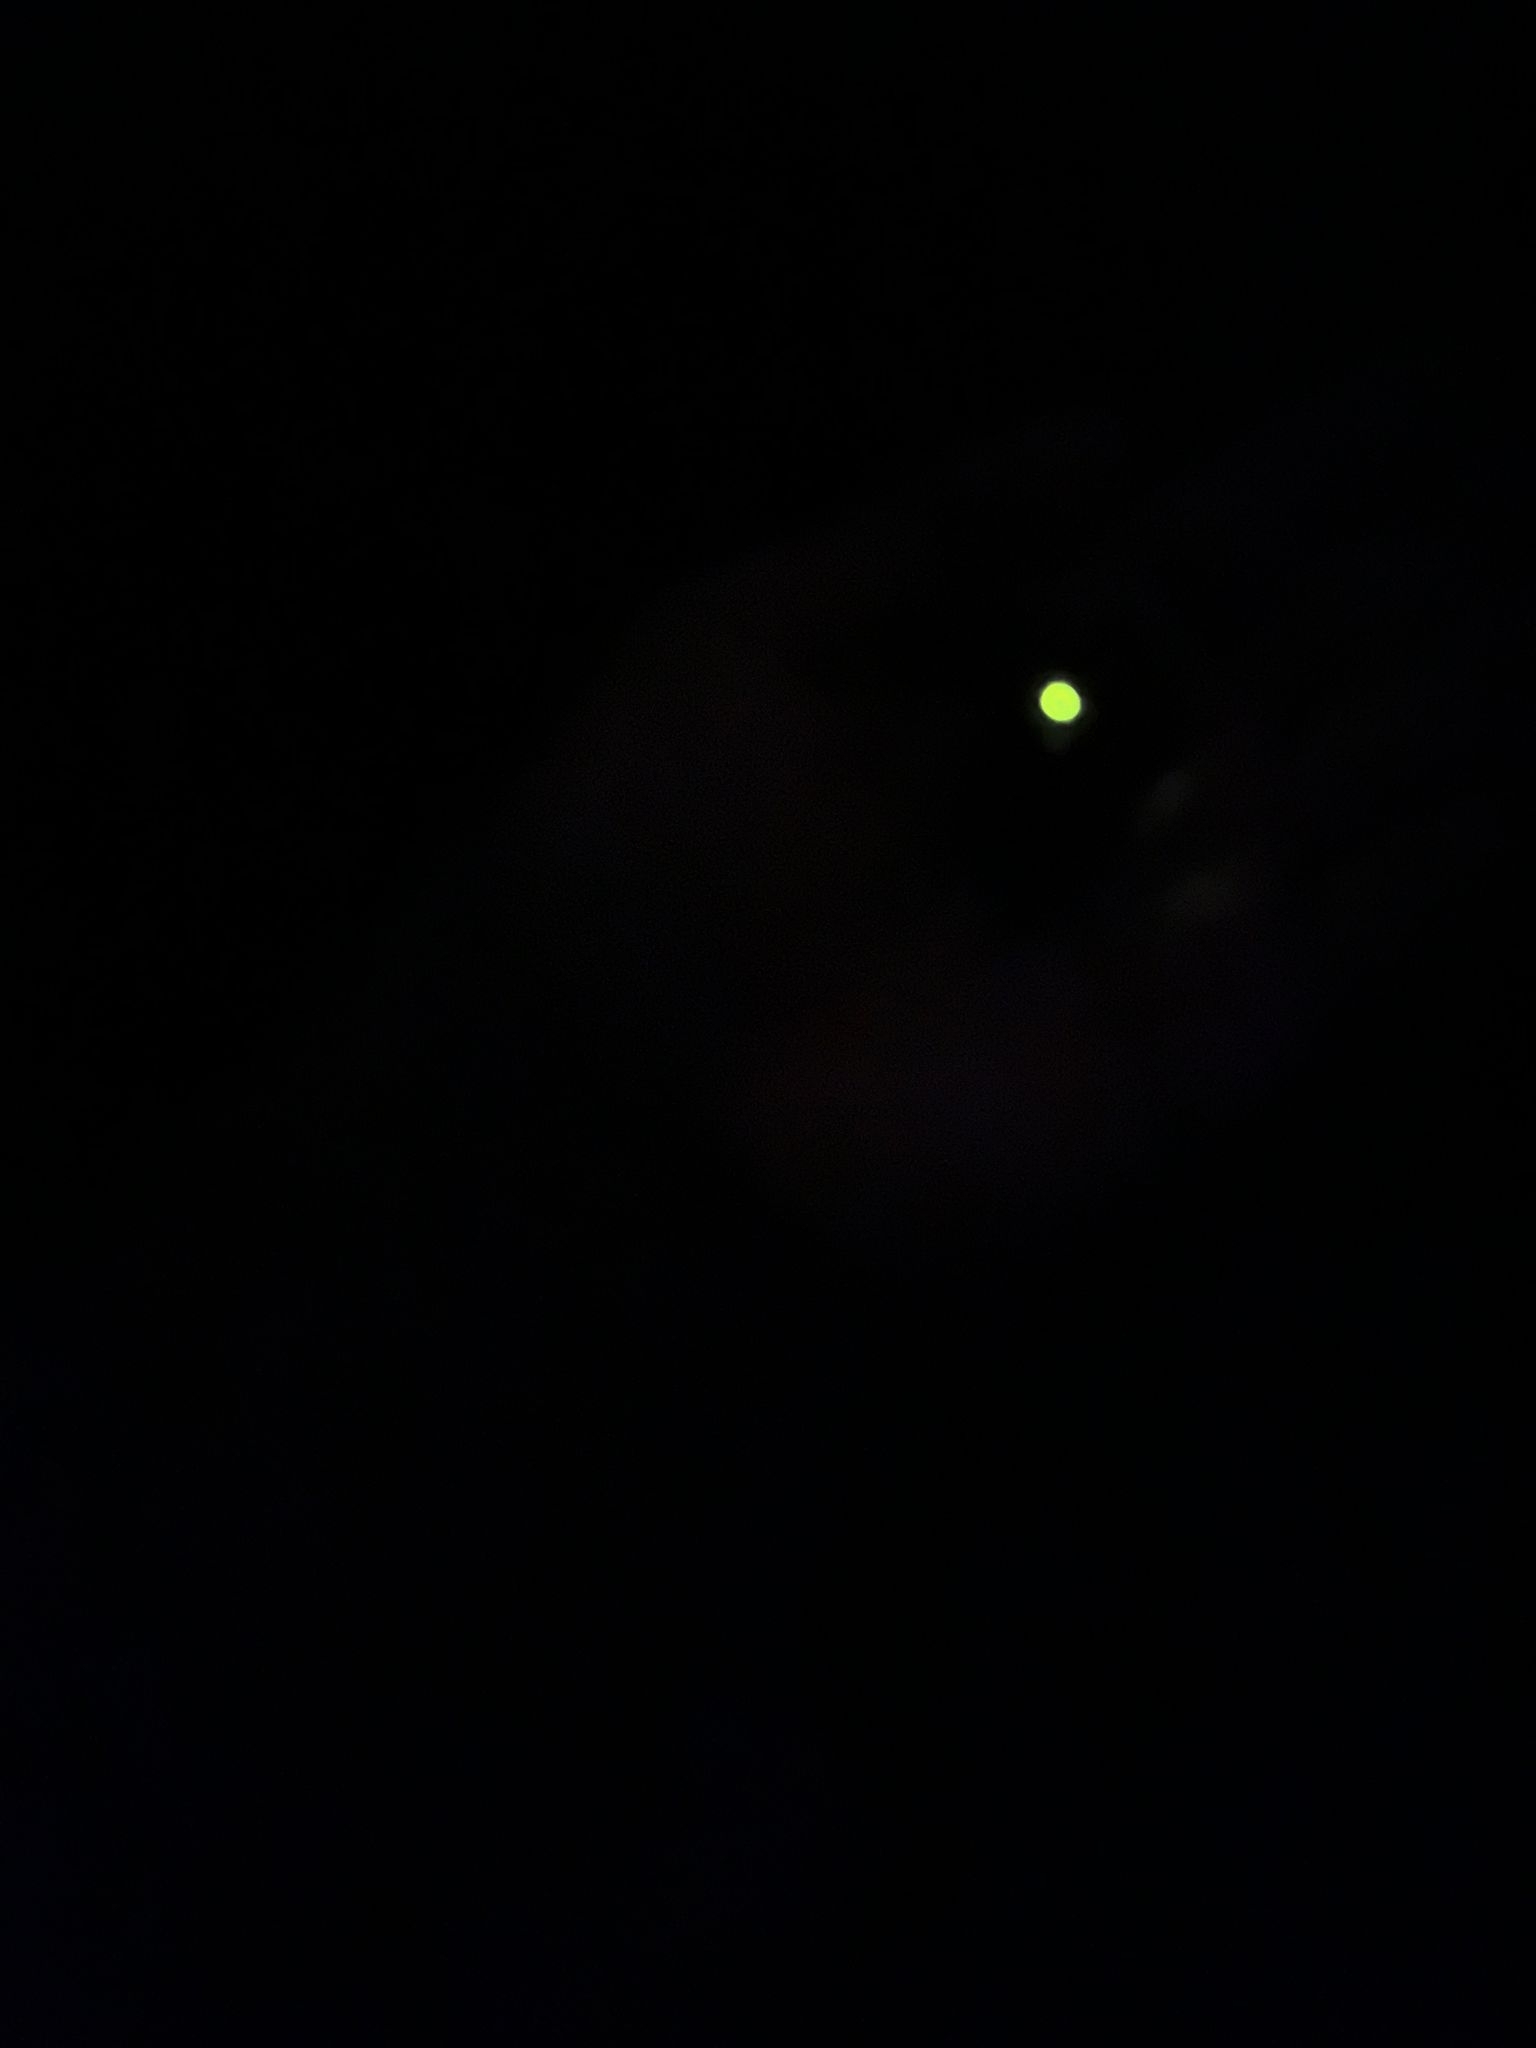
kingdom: Animalia
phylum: Arthropoda
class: Insecta
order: Coleoptera
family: Lampyridae
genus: Lampyris
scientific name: Lampyris noctiluca
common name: Glow-worm
